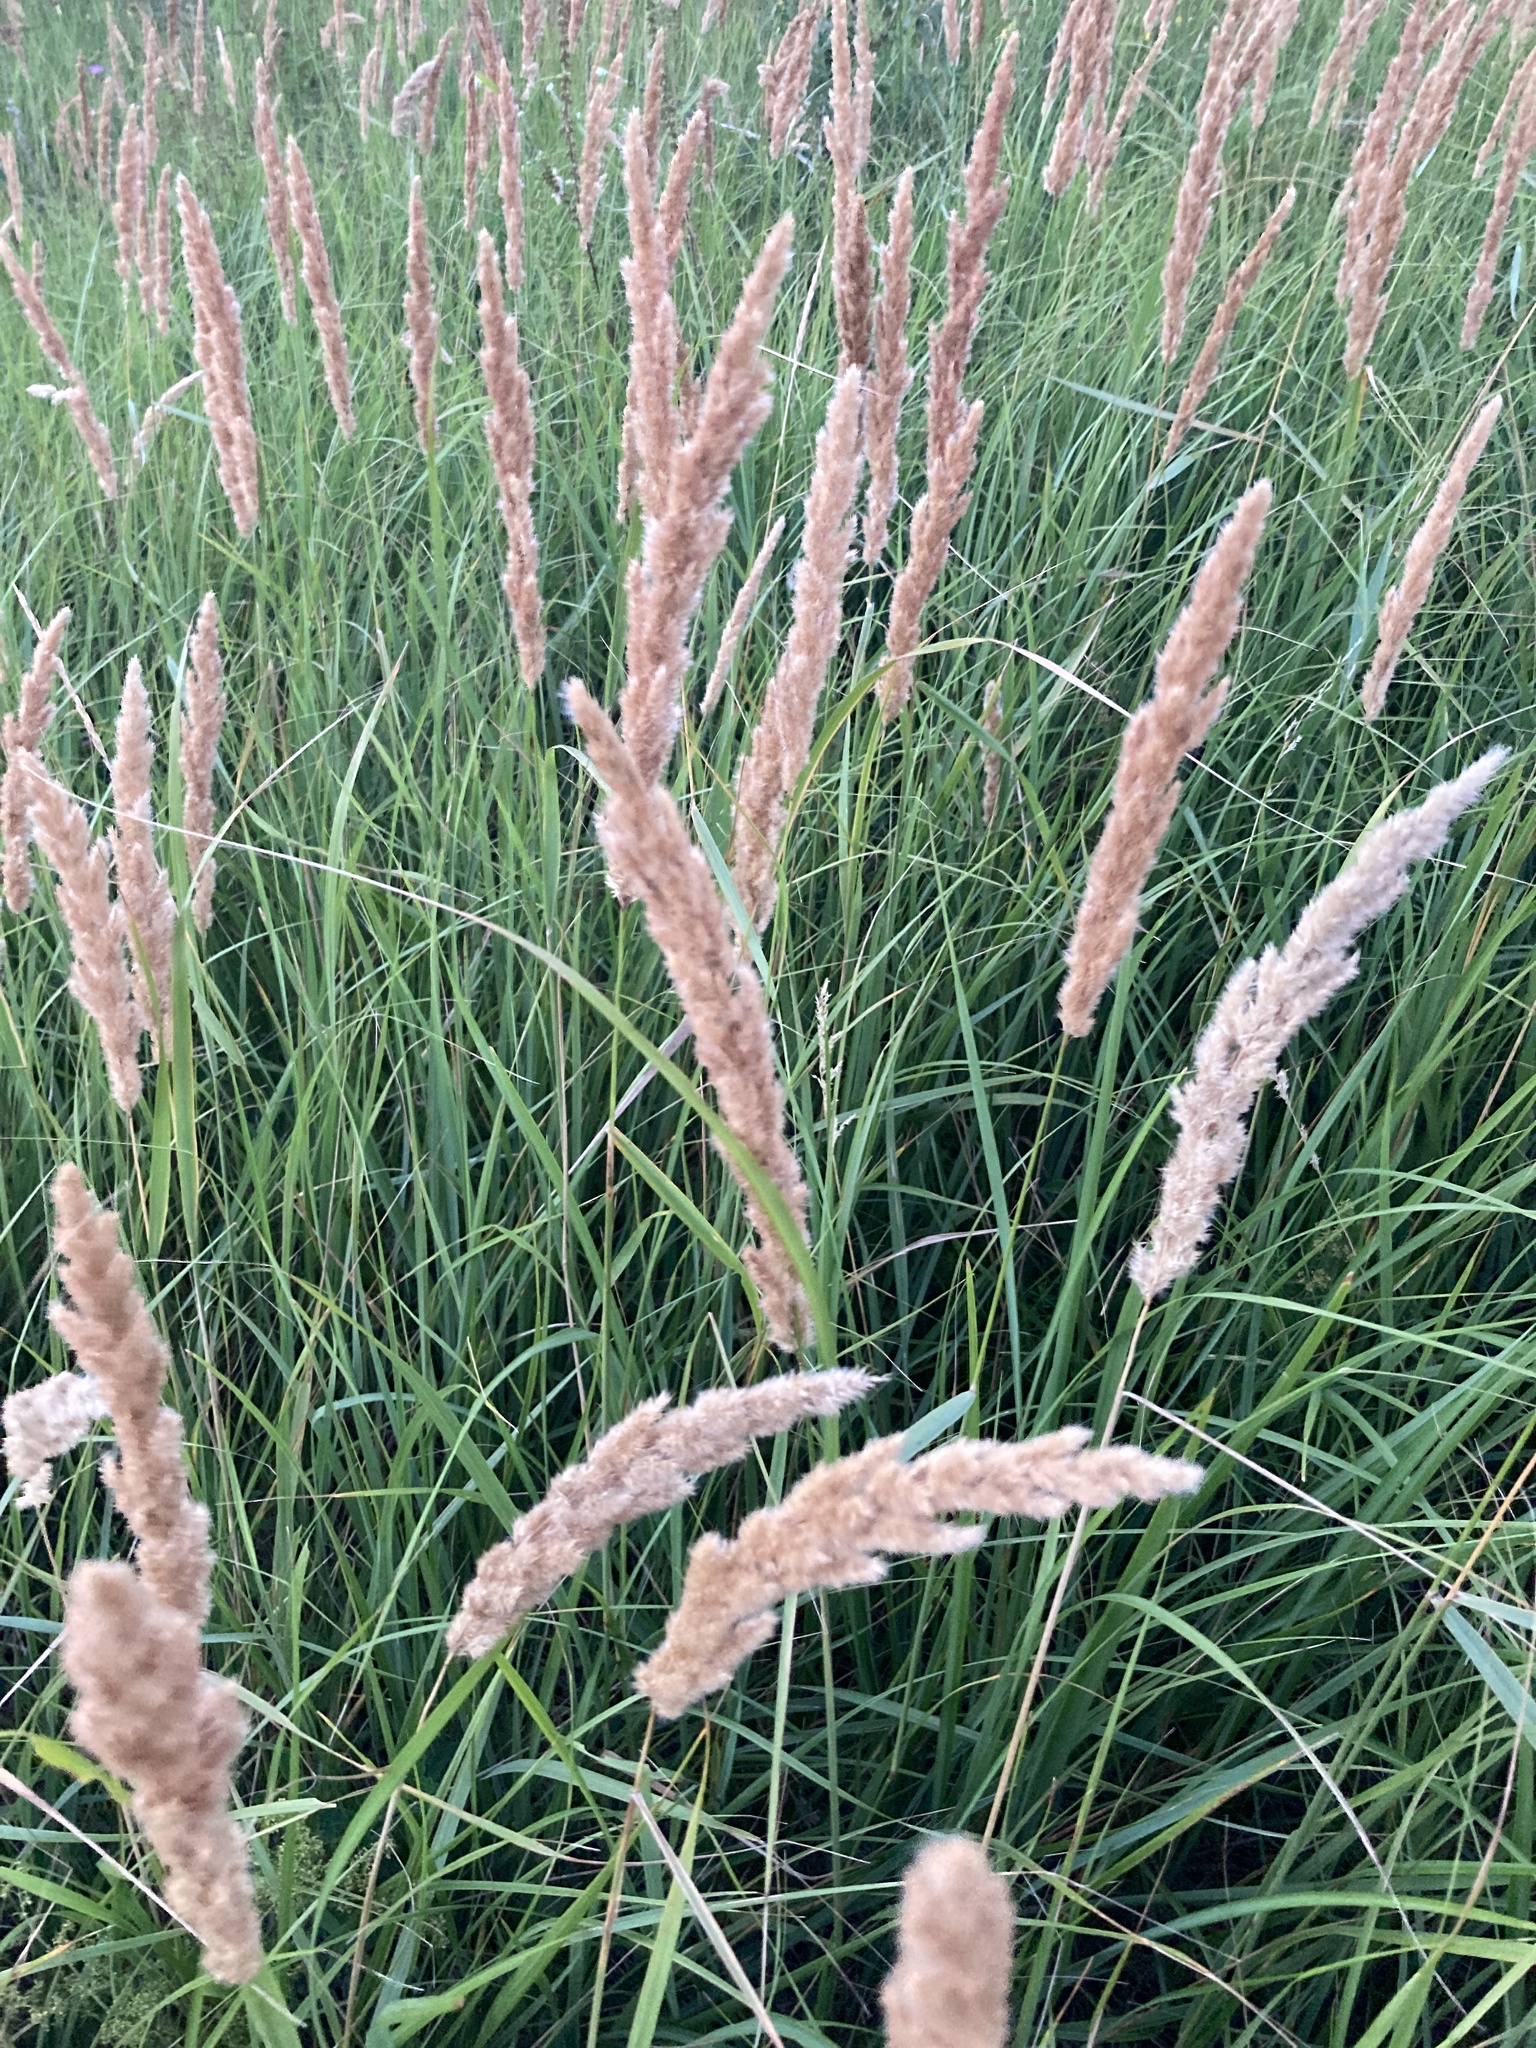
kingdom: Plantae
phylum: Tracheophyta
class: Liliopsida
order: Poales
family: Poaceae
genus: Calamagrostis
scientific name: Calamagrostis epigejos
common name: Wood small-reed
